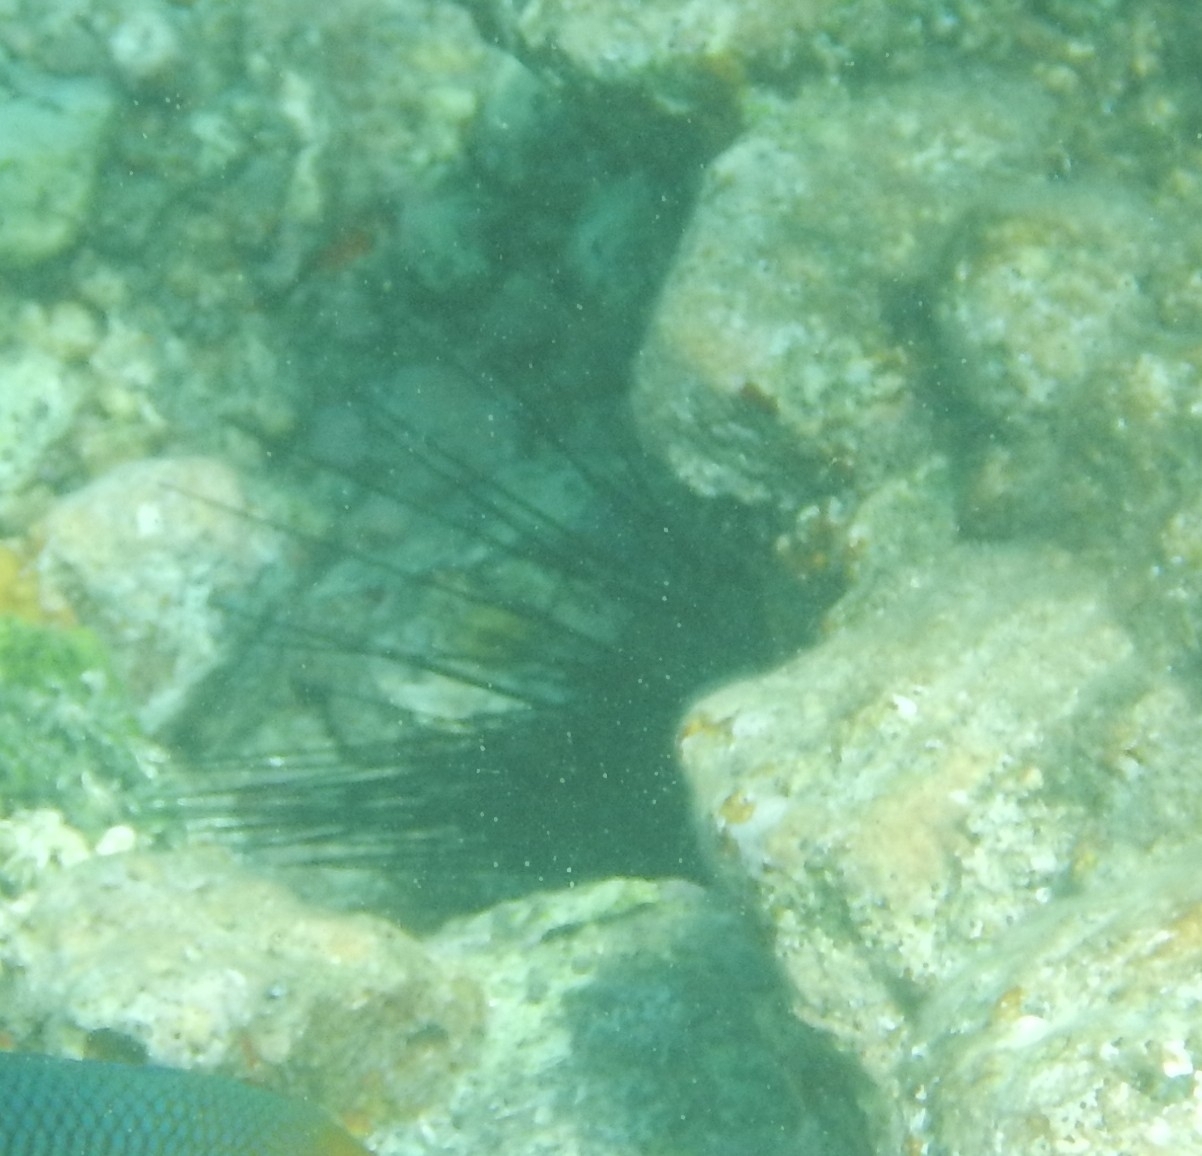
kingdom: Animalia
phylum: Echinodermata
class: Echinoidea
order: Diadematoida
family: Diadematidae
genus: Diadema
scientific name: Diadema antillarum
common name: Spiny urchin
